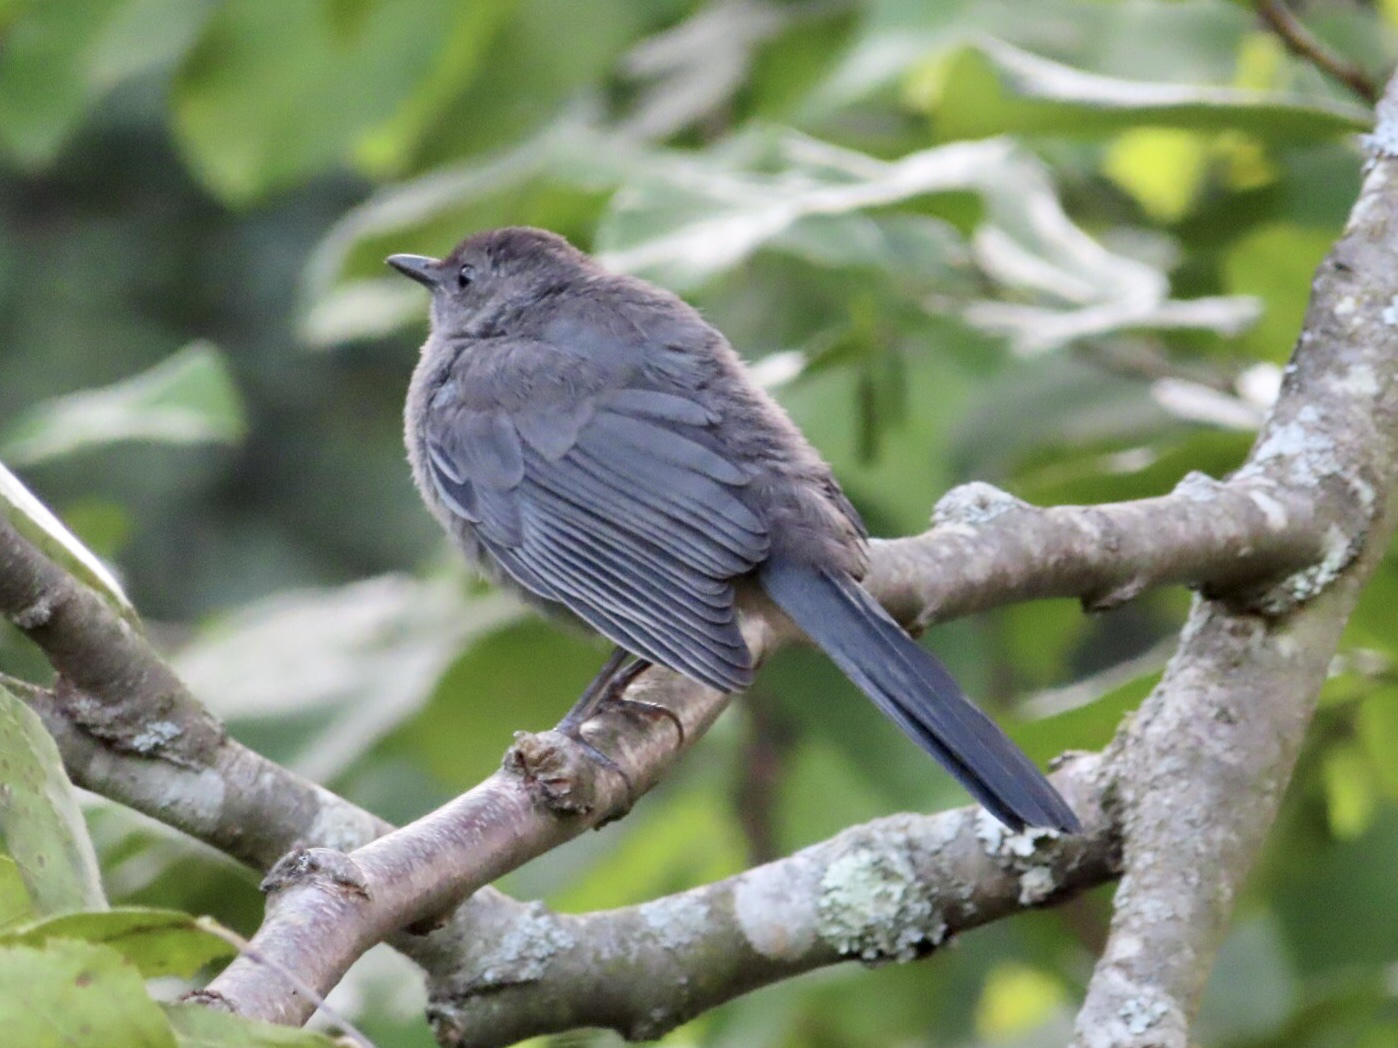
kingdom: Animalia
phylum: Chordata
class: Aves
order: Passeriformes
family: Mimidae
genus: Dumetella
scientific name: Dumetella carolinensis
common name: Gray catbird
